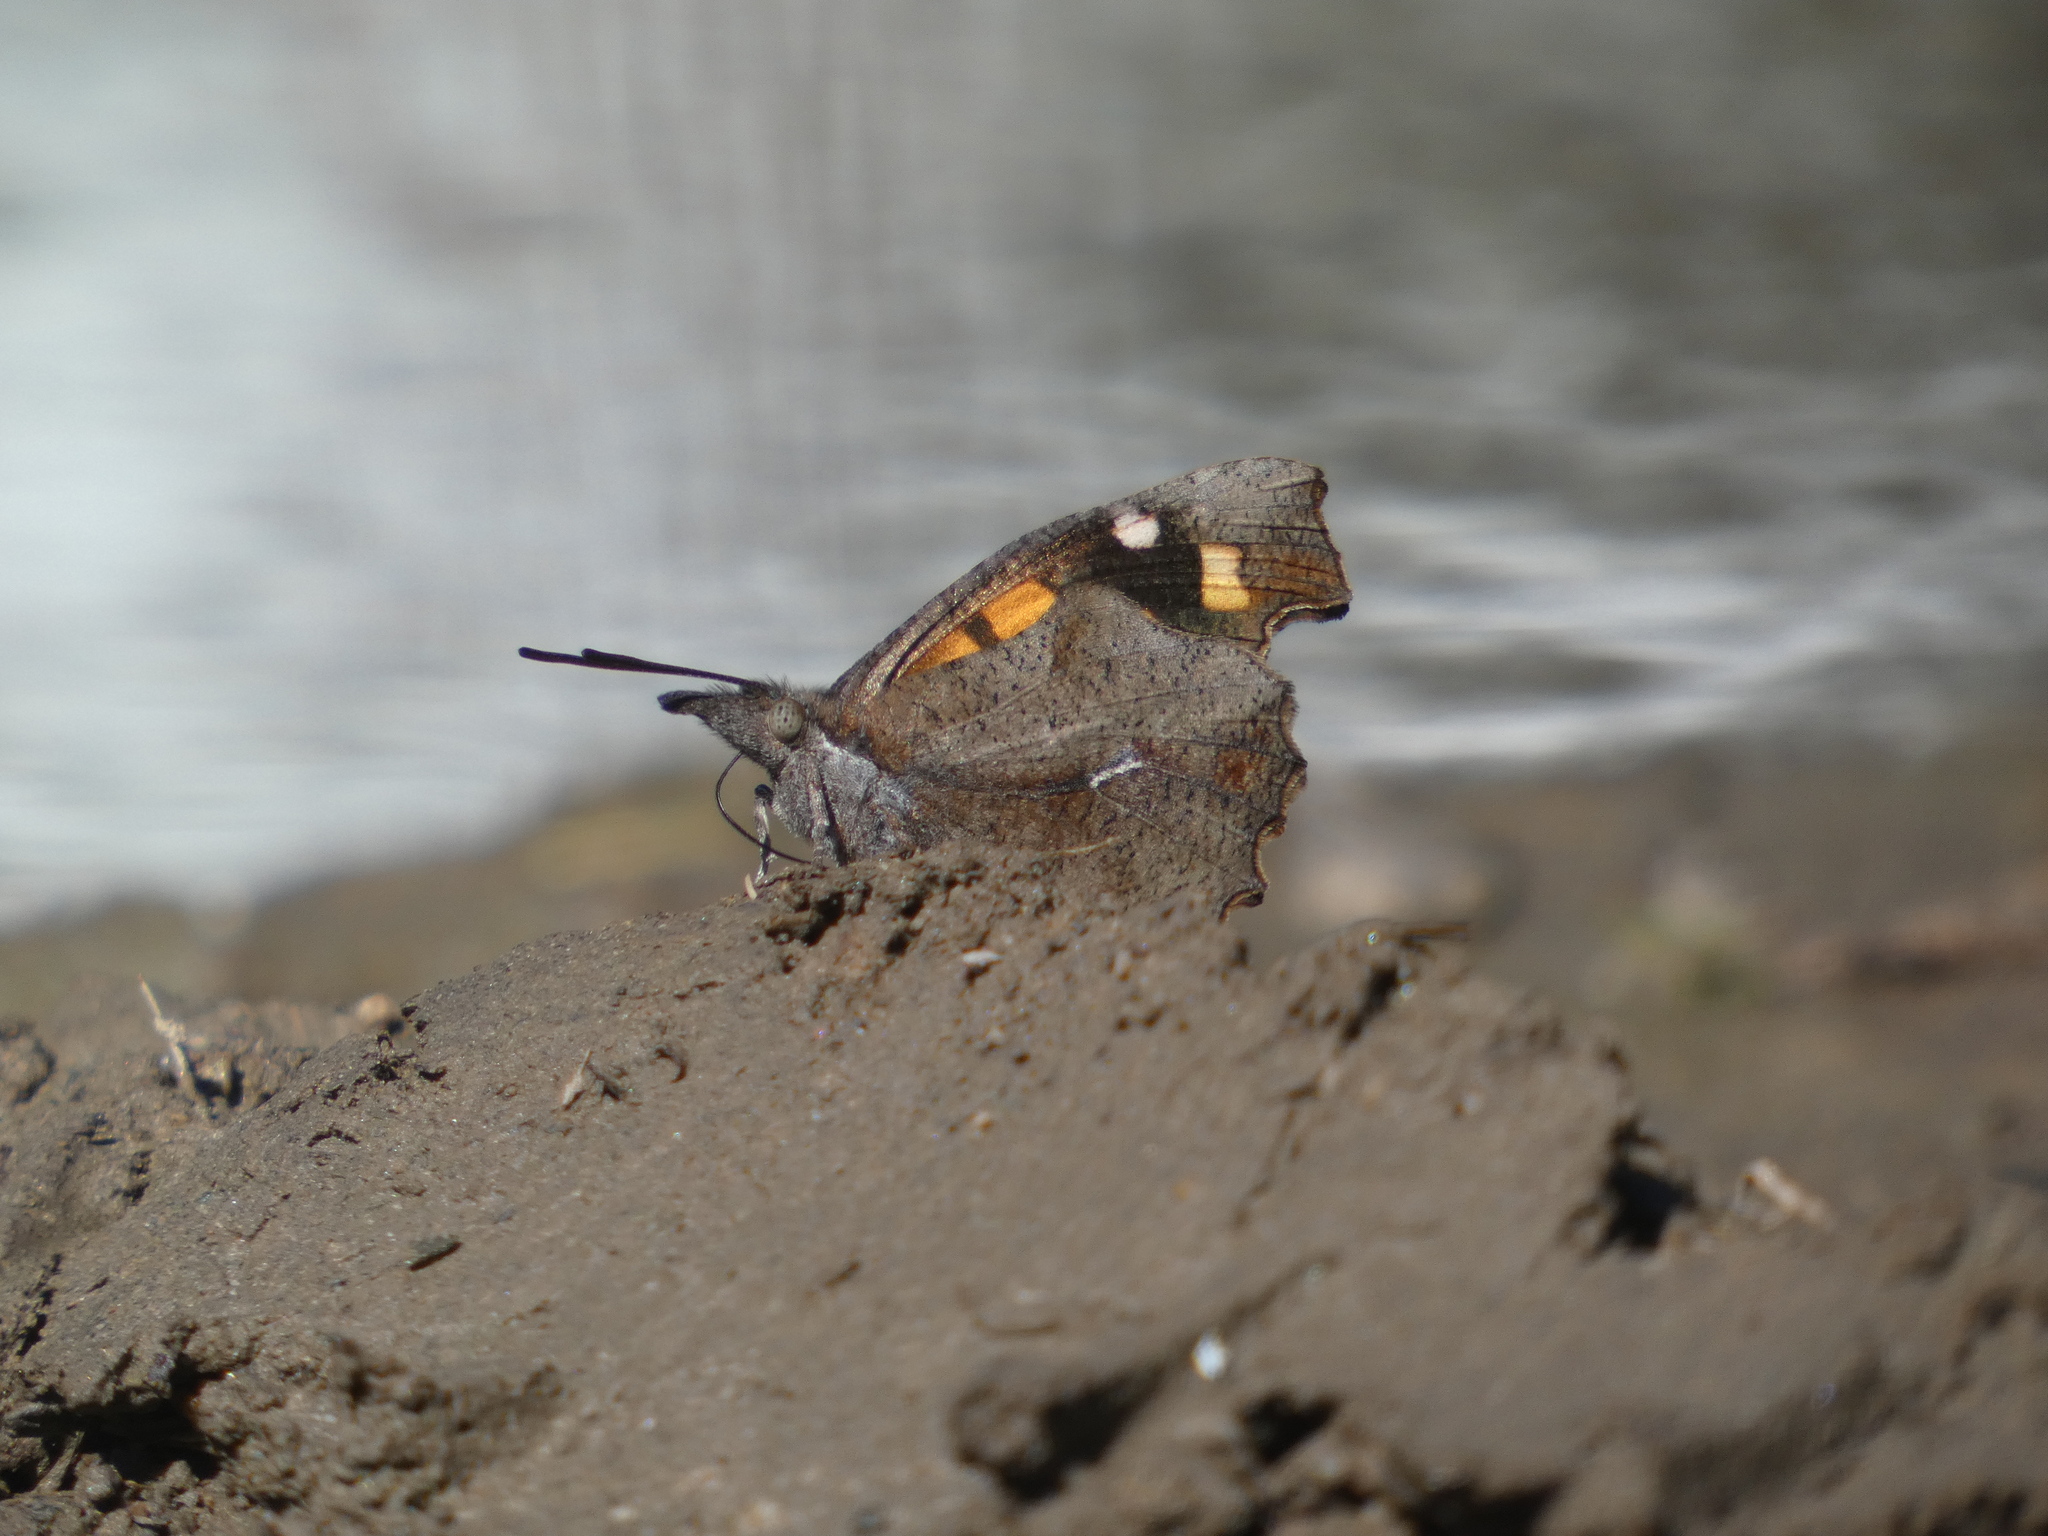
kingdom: Animalia
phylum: Arthropoda
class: Insecta
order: Lepidoptera
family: Nymphalidae
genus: Libythea
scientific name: Libythea celtis
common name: Nettle-tree butterfly
